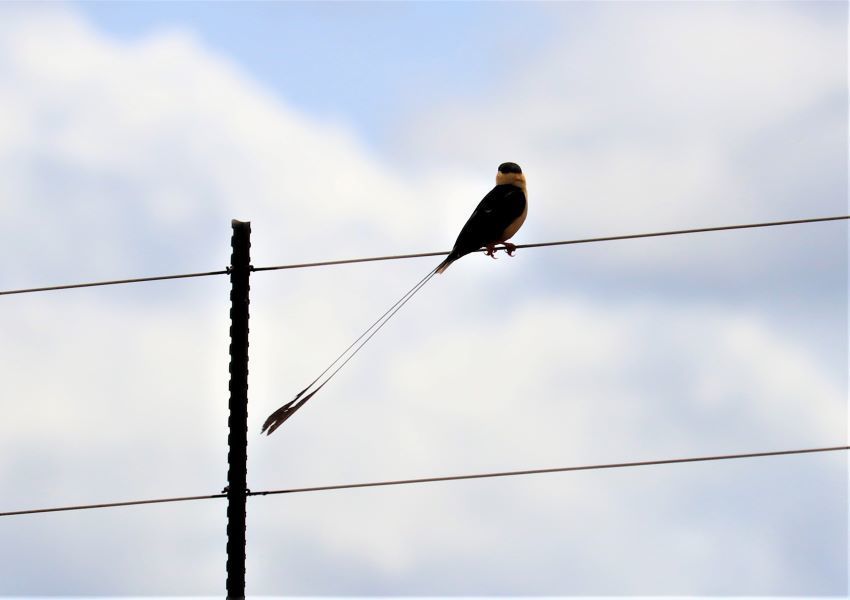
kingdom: Animalia
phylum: Chordata
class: Aves
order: Passeriformes
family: Viduidae
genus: Vidua
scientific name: Vidua regia
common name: Shaft-tailed whydah
